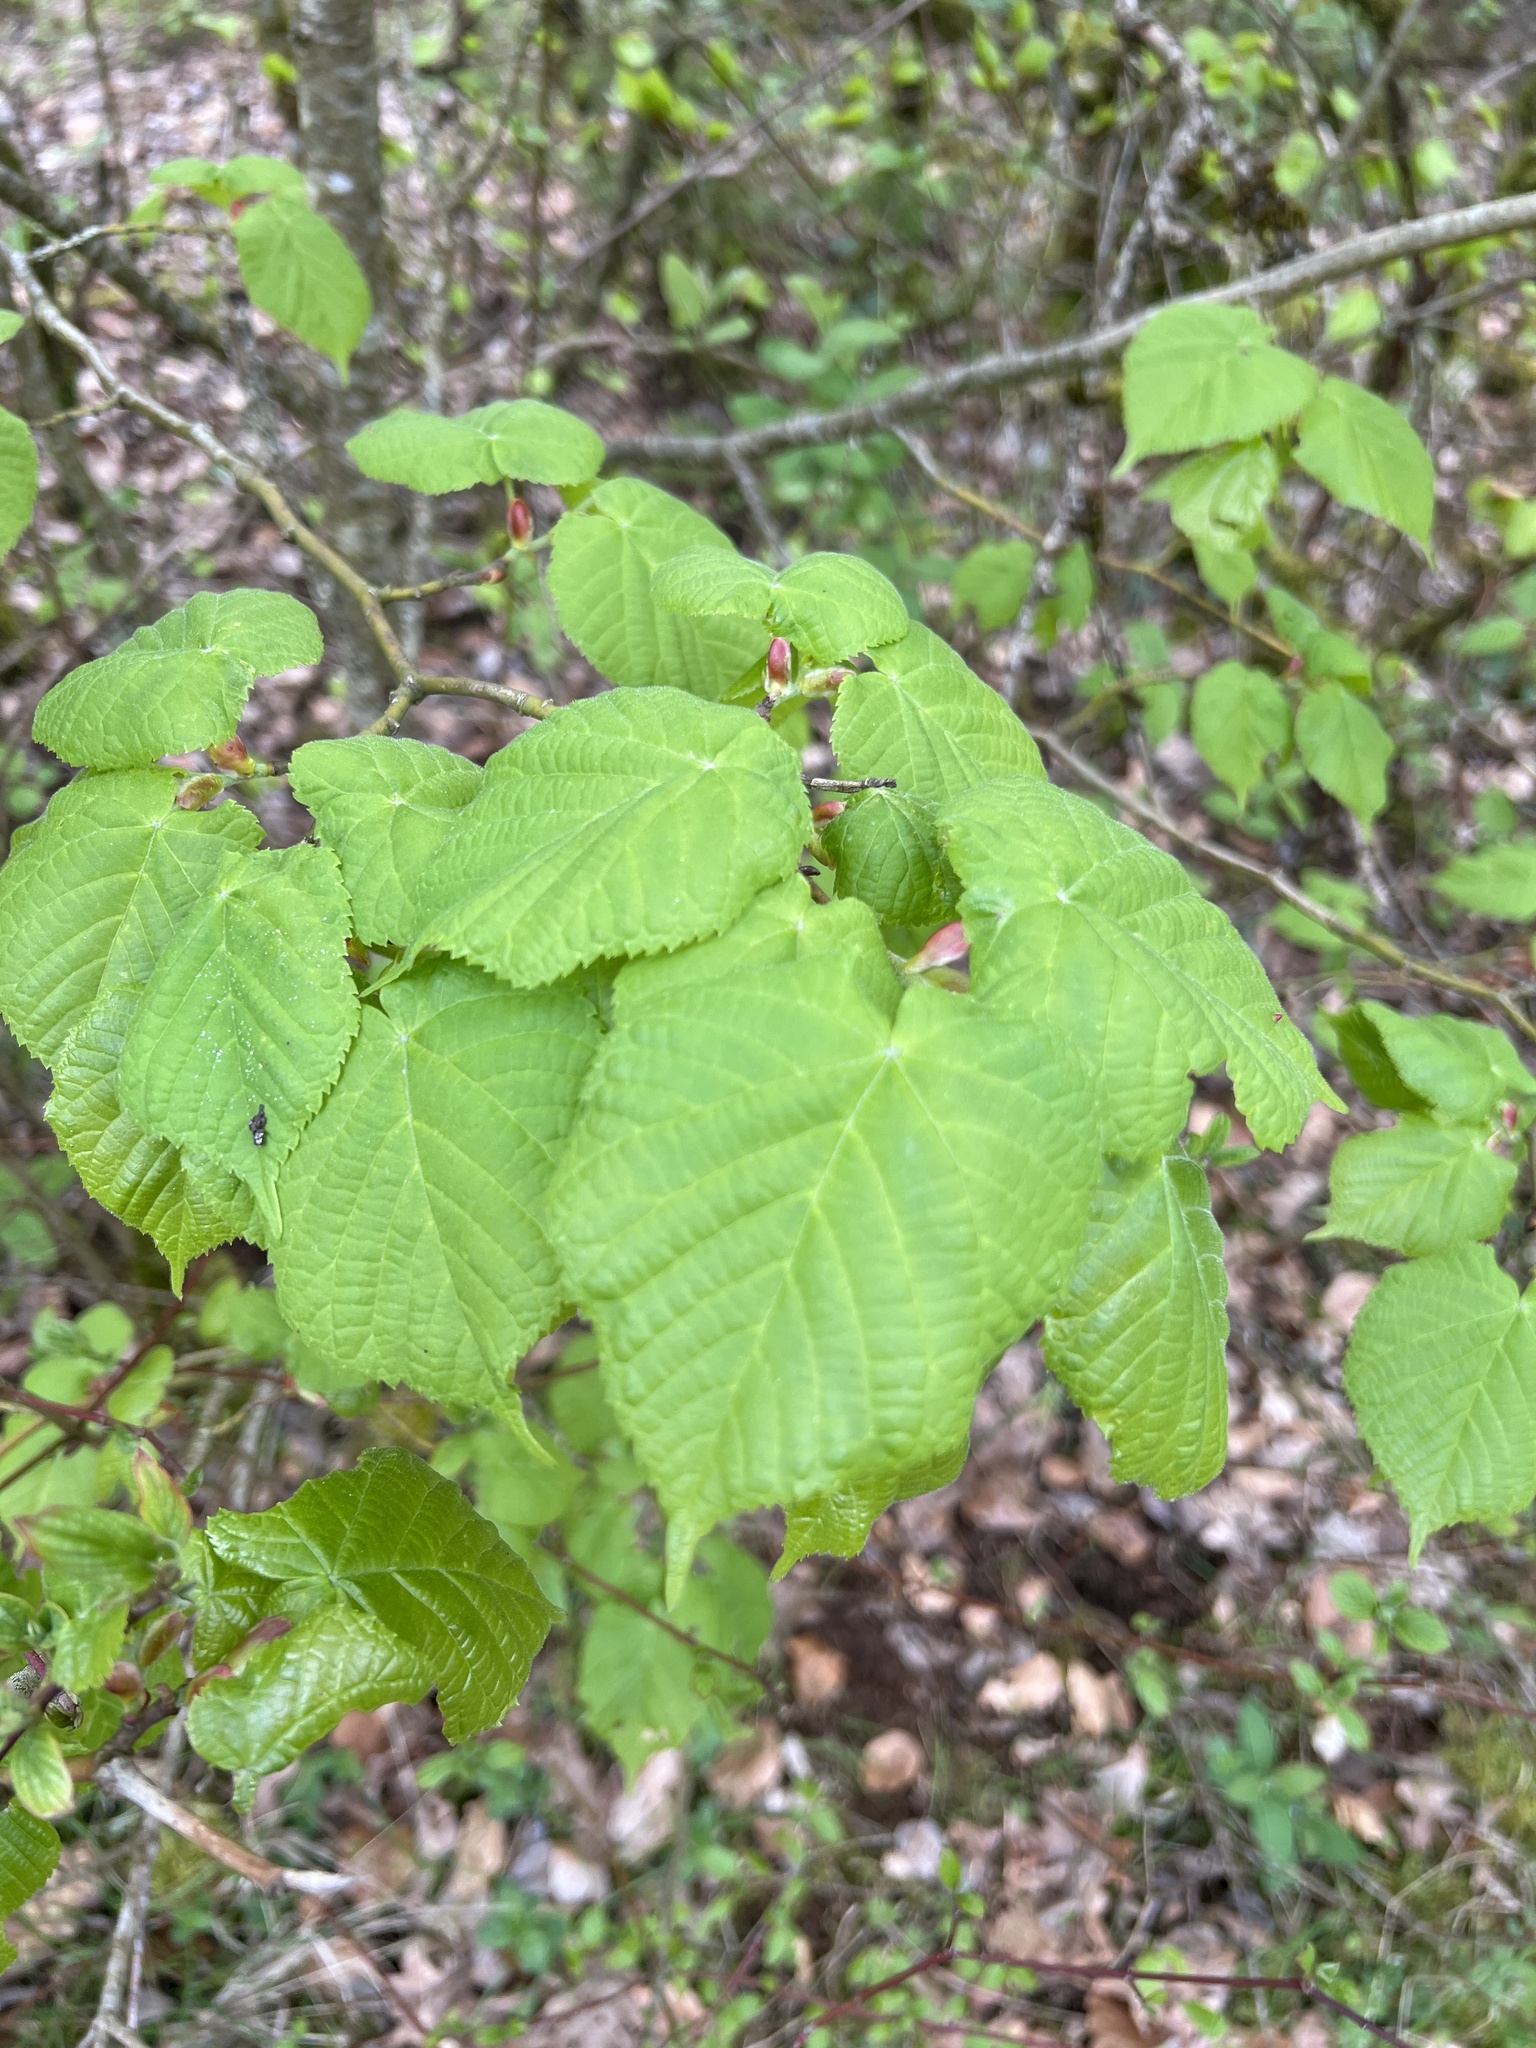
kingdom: Plantae
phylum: Tracheophyta
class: Magnoliopsida
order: Malvales
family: Malvaceae
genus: Tilia
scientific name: Tilia platyphyllos
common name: Large-leaved lime
